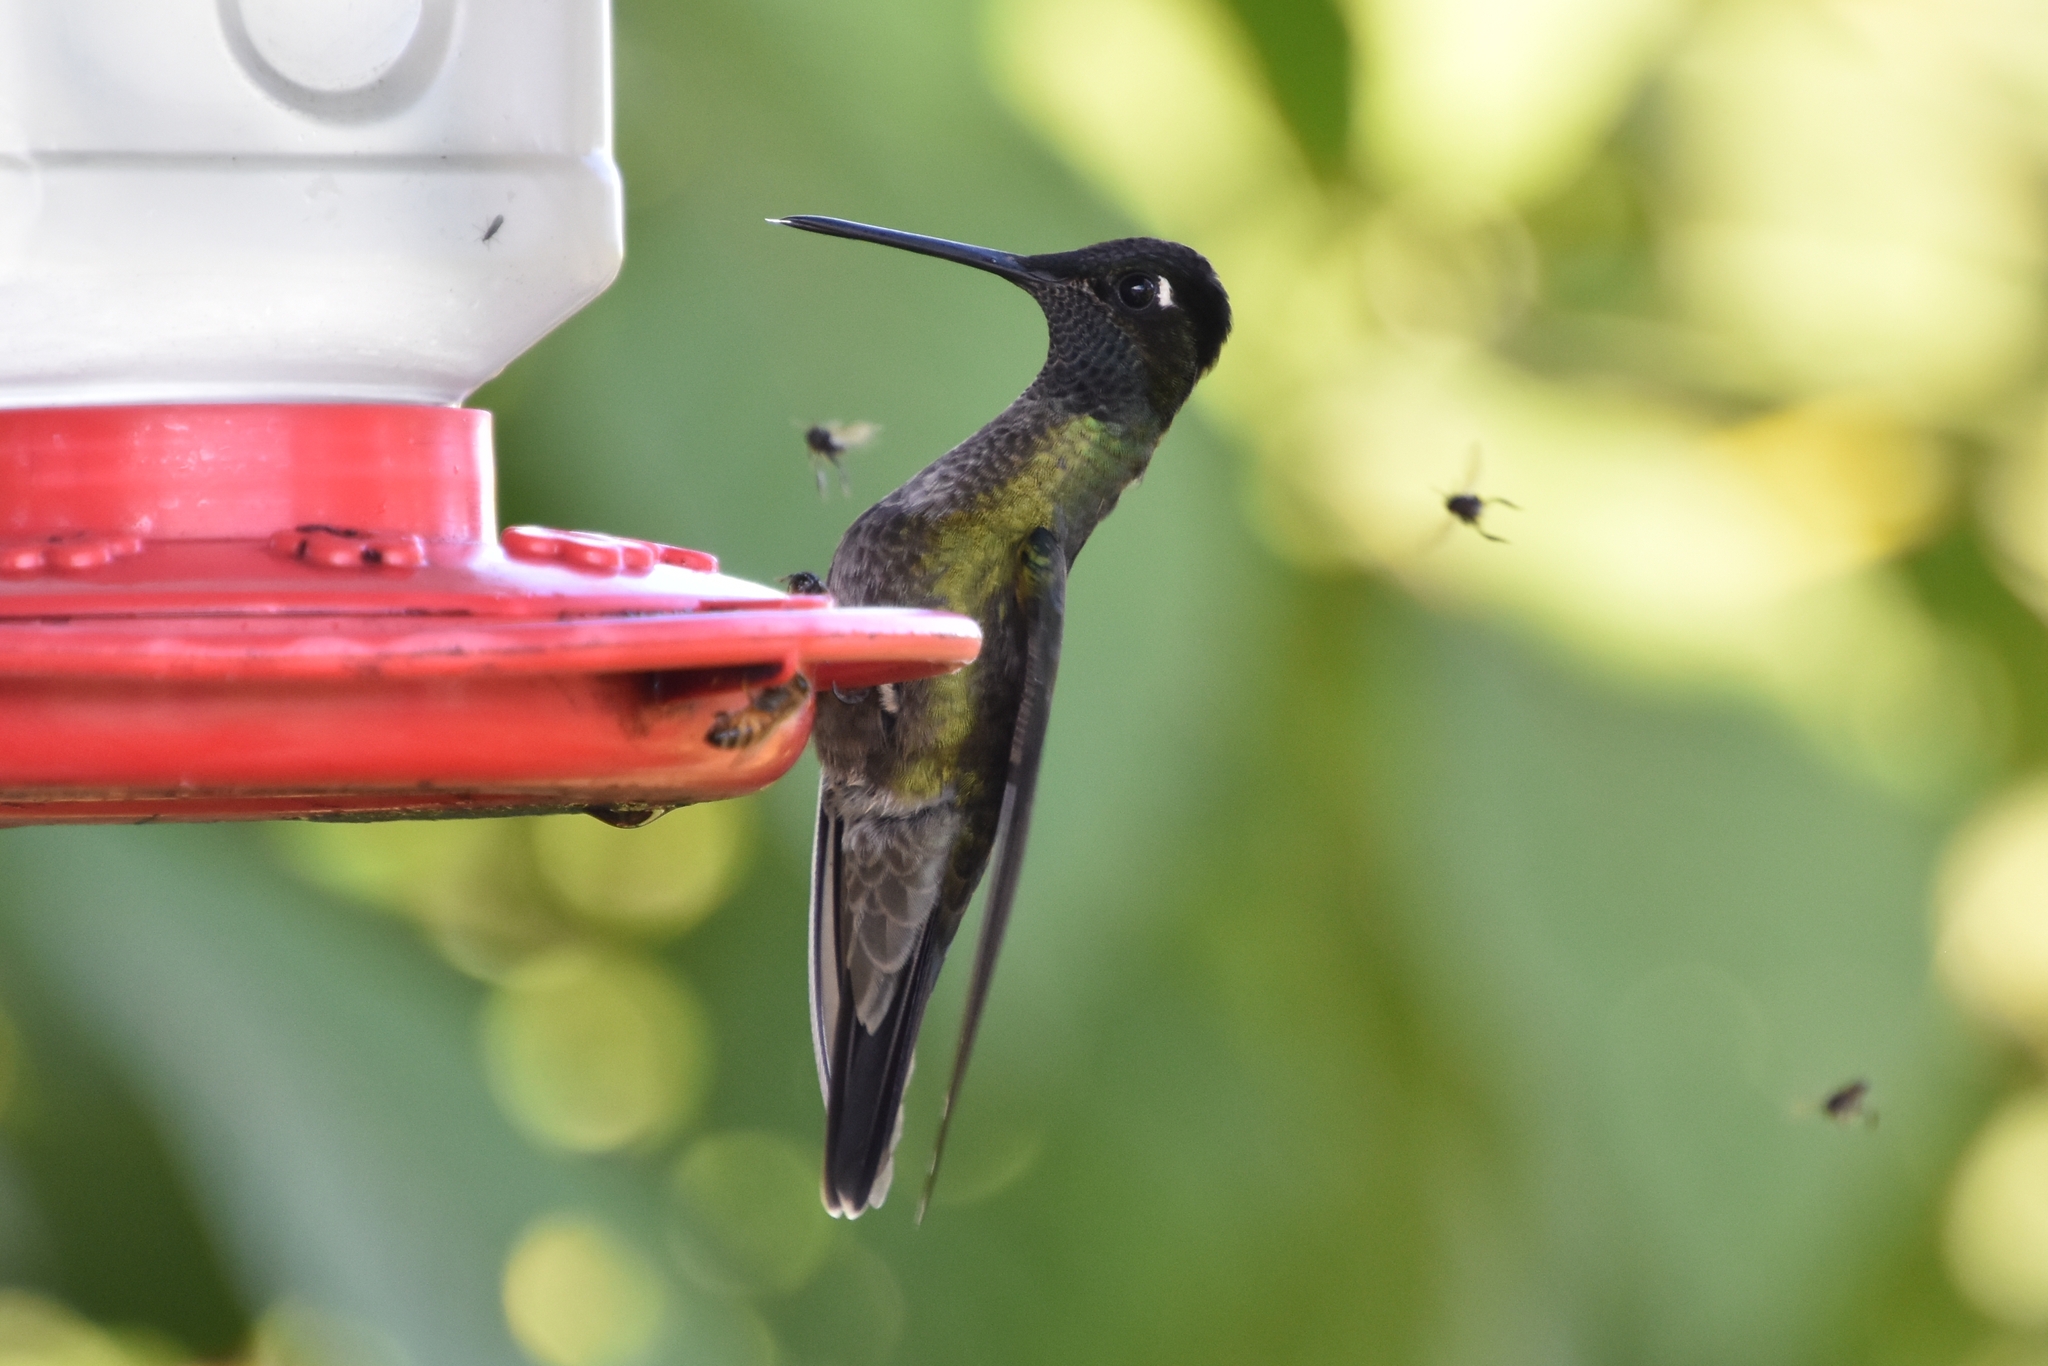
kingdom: Animalia
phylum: Chordata
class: Aves
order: Apodiformes
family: Trochilidae
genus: Eugenes
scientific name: Eugenes spectabilis
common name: Talamanca hummingbird
